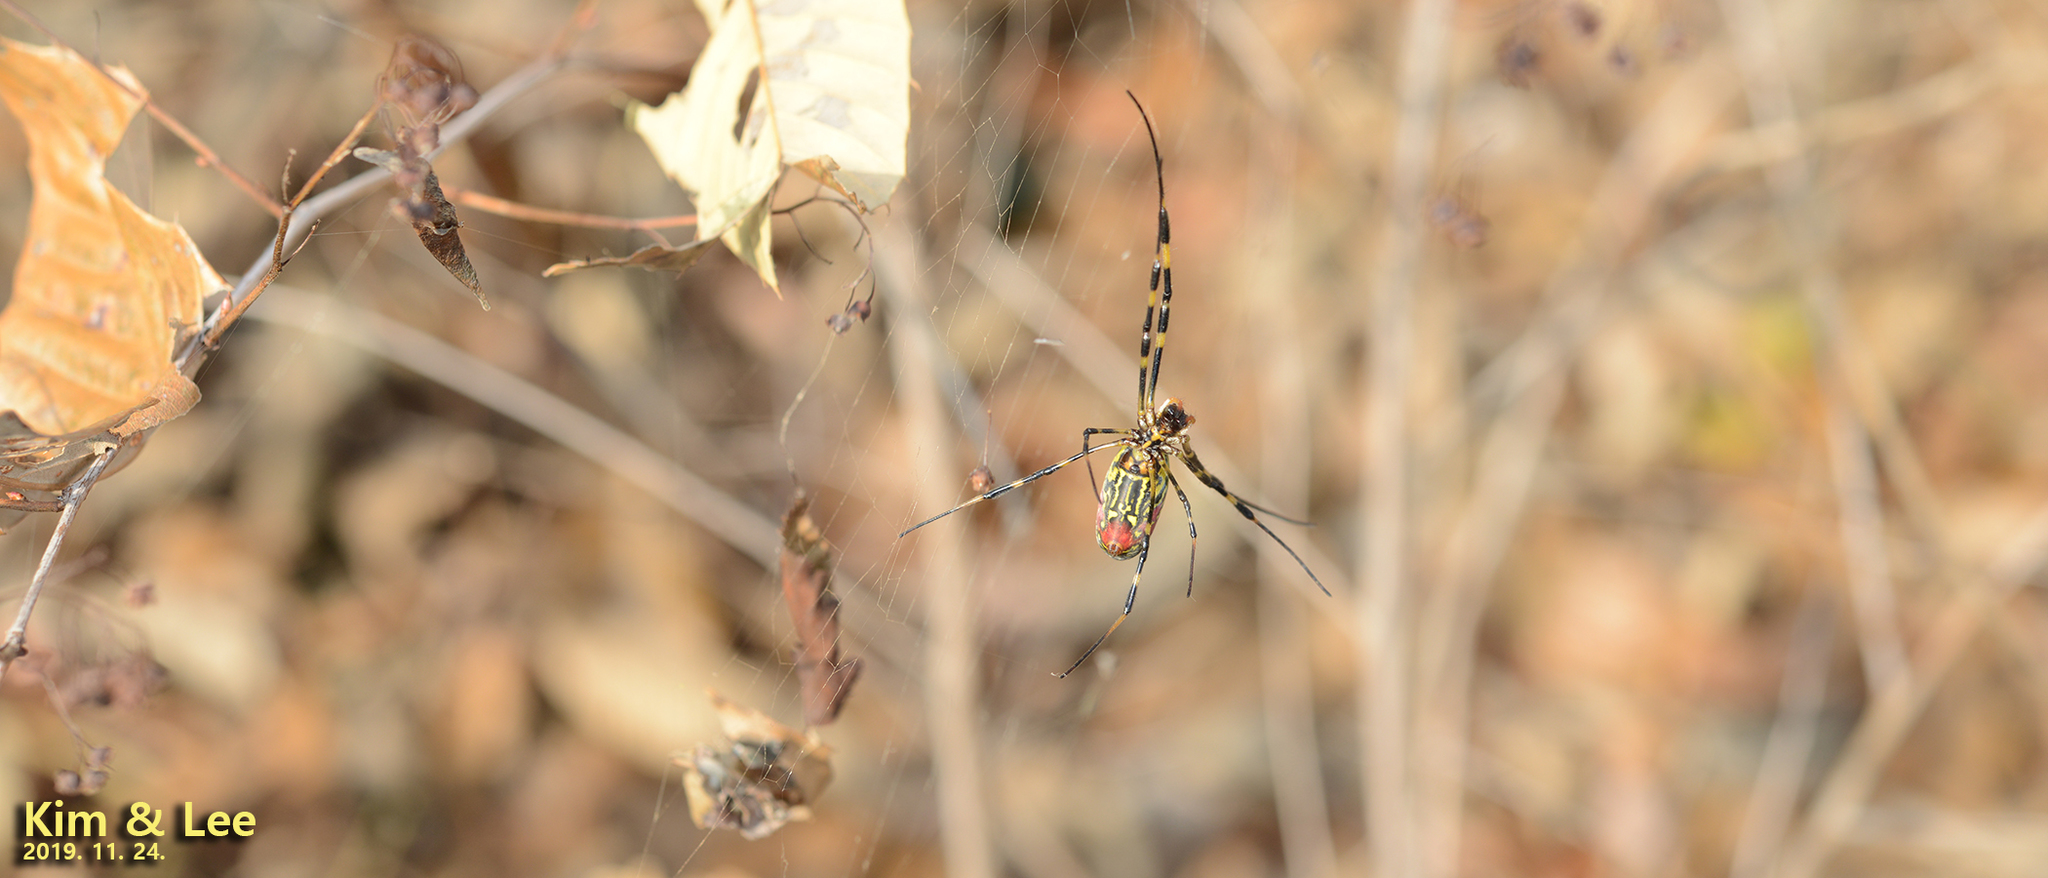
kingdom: Animalia
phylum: Arthropoda
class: Arachnida
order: Araneae
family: Araneidae
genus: Trichonephila
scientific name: Trichonephila clavata
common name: Jorō spider
